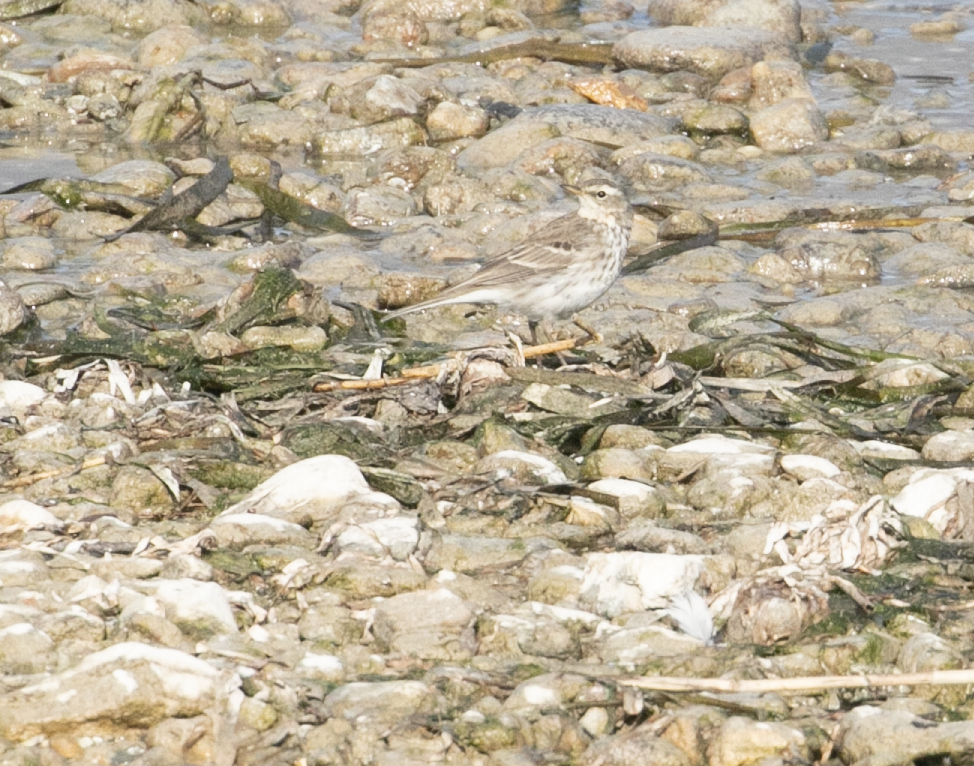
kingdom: Animalia
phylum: Chordata
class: Aves
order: Passeriformes
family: Motacillidae
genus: Anthus
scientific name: Anthus spinoletta
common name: Water pipit
